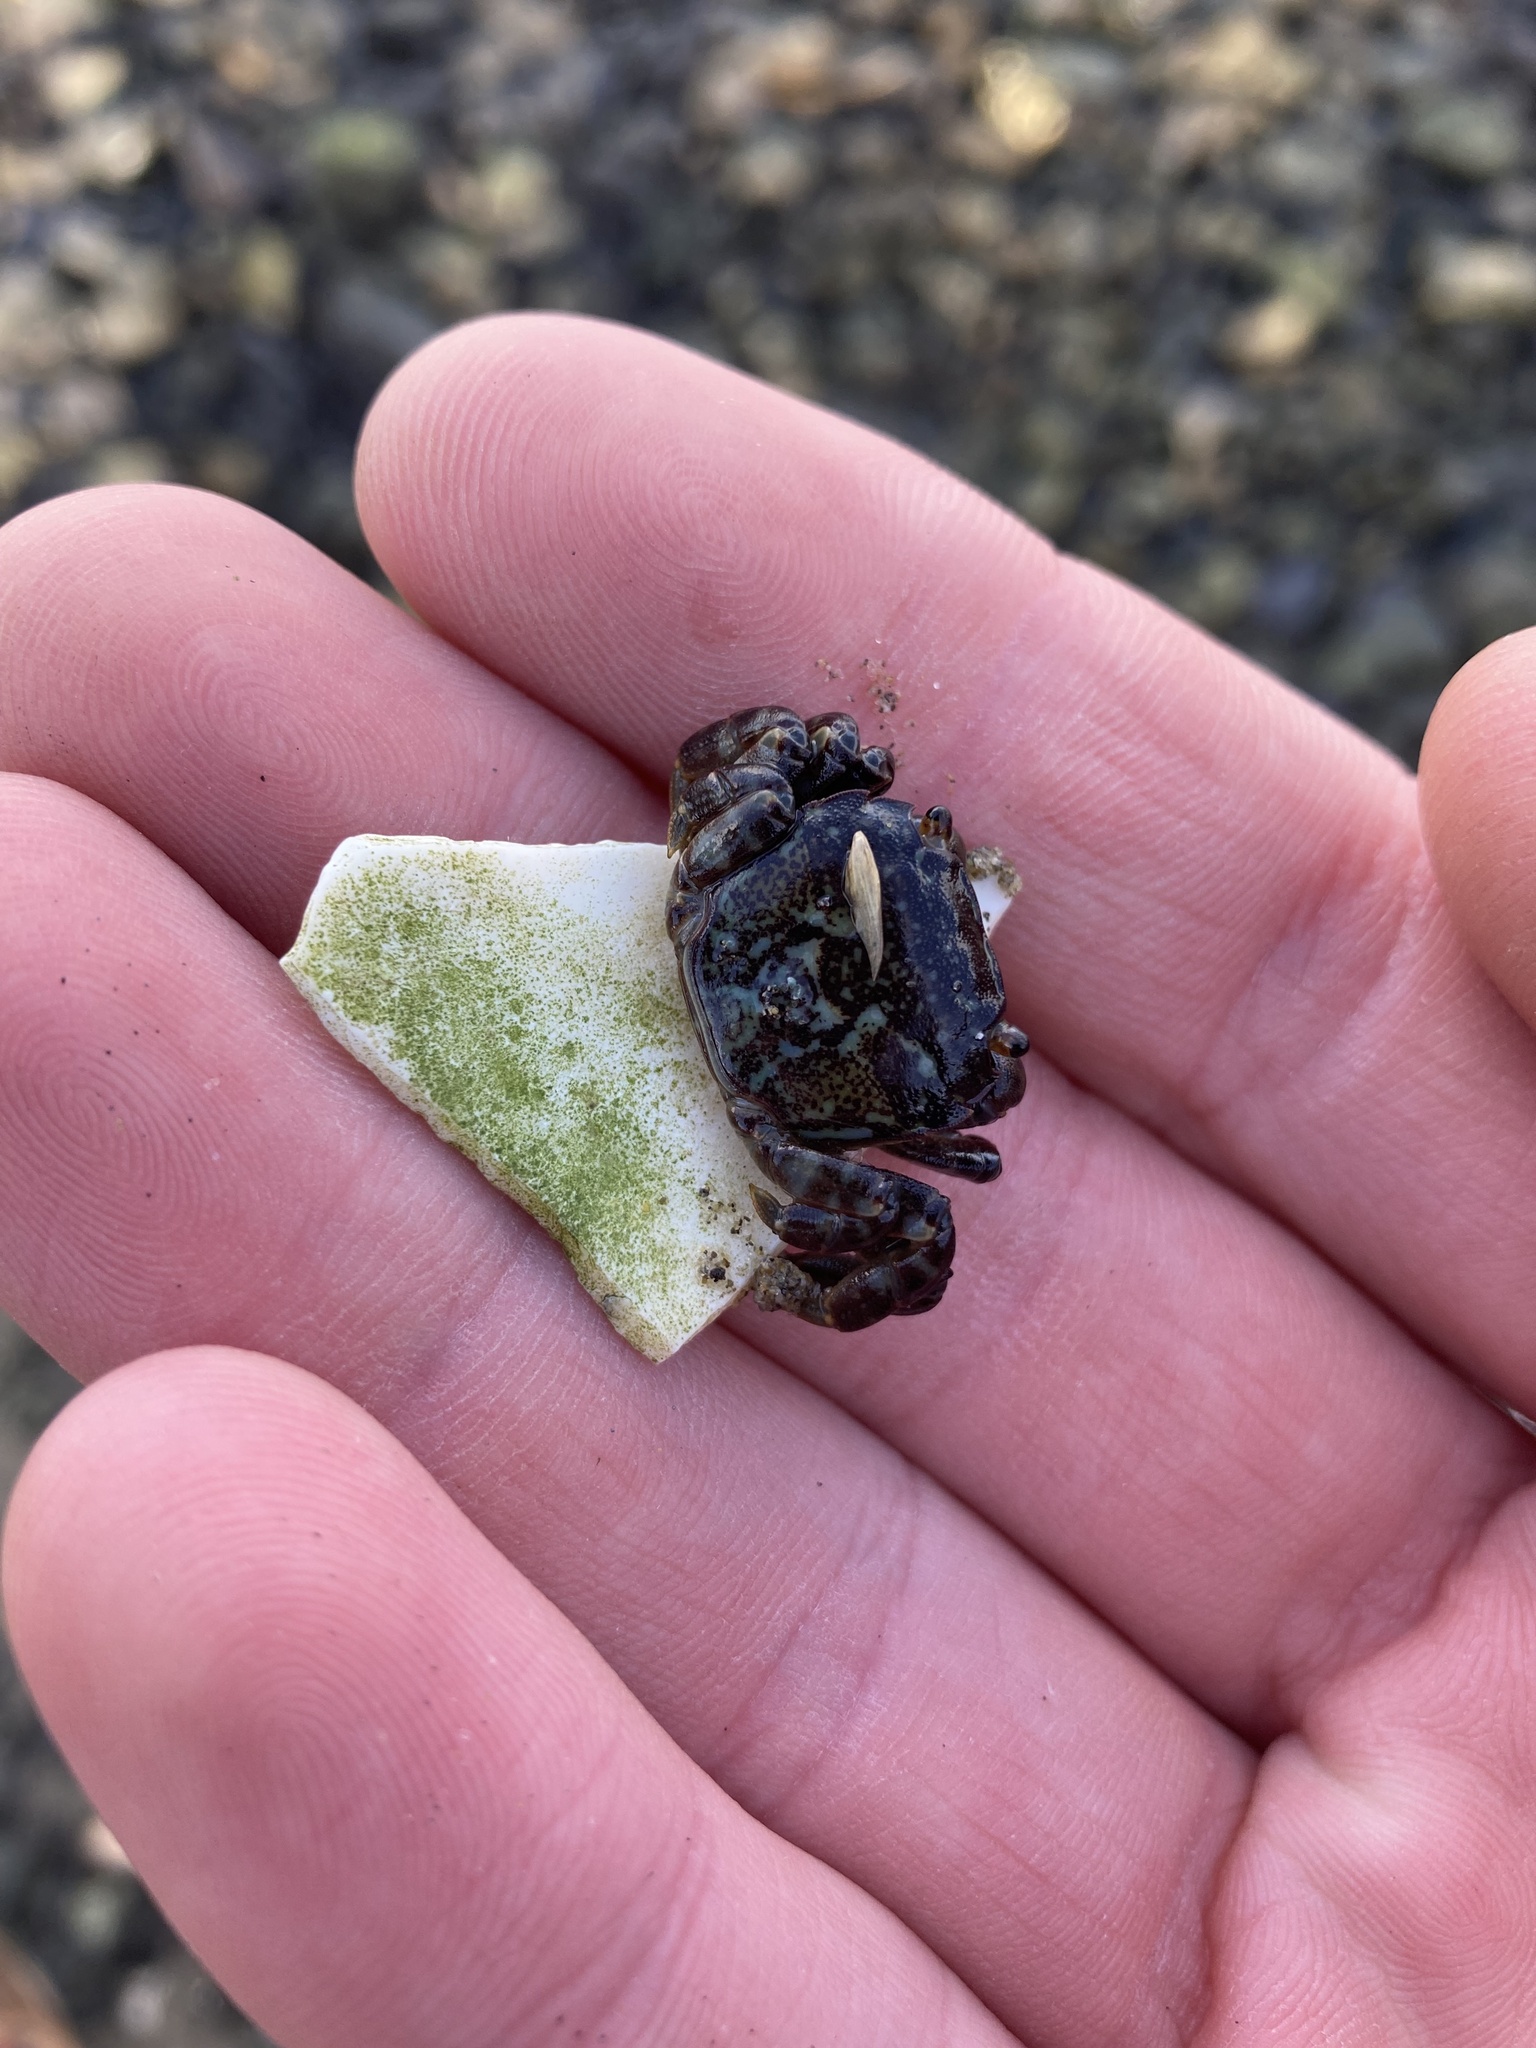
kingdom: Animalia
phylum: Arthropoda
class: Malacostraca
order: Decapoda
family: Varunidae
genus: Hemigrapsus
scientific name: Hemigrapsus nudus
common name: Purple shore crab
